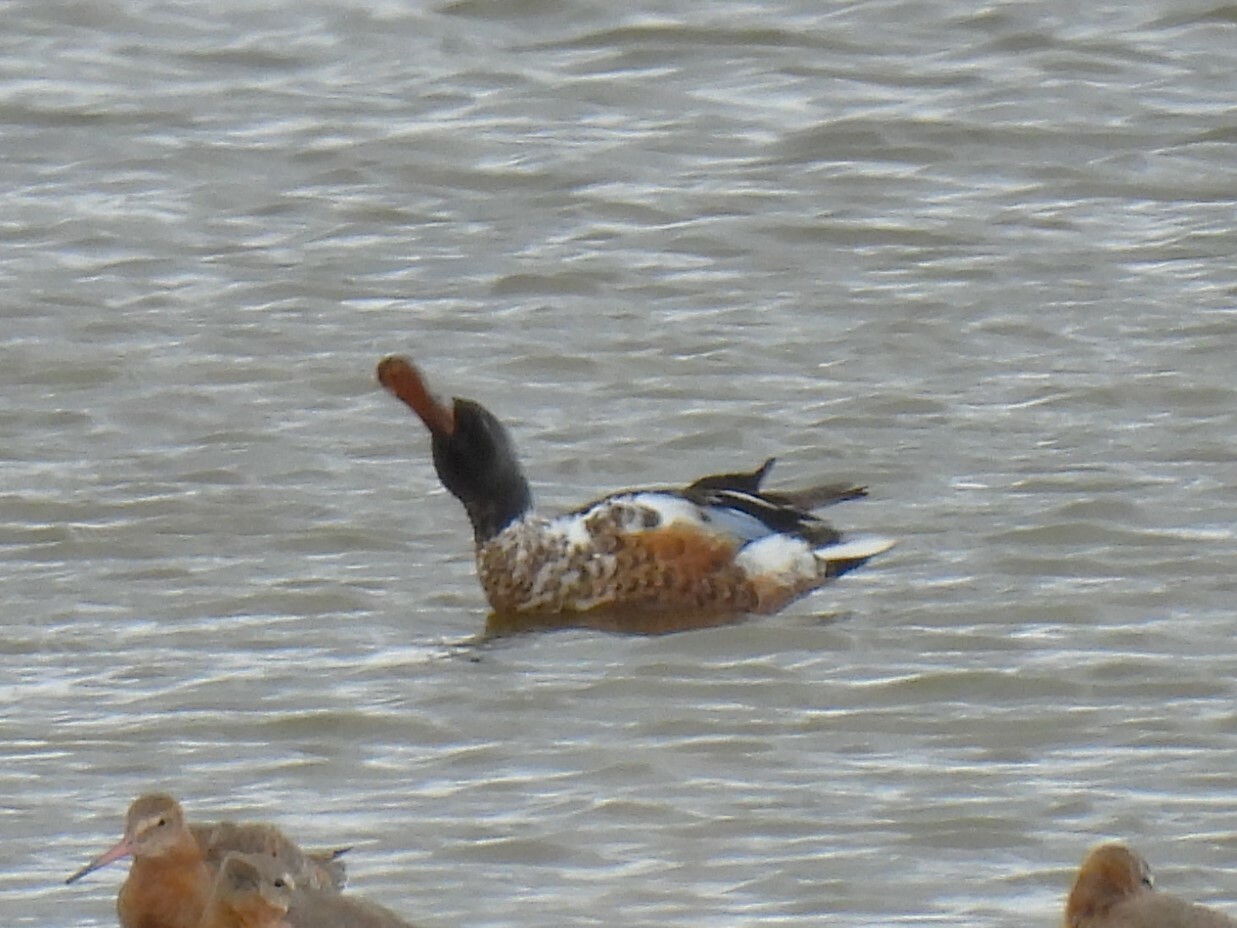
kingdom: Animalia
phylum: Chordata
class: Aves
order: Anseriformes
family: Anatidae
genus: Spatula
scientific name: Spatula clypeata
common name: Northern shoveler
